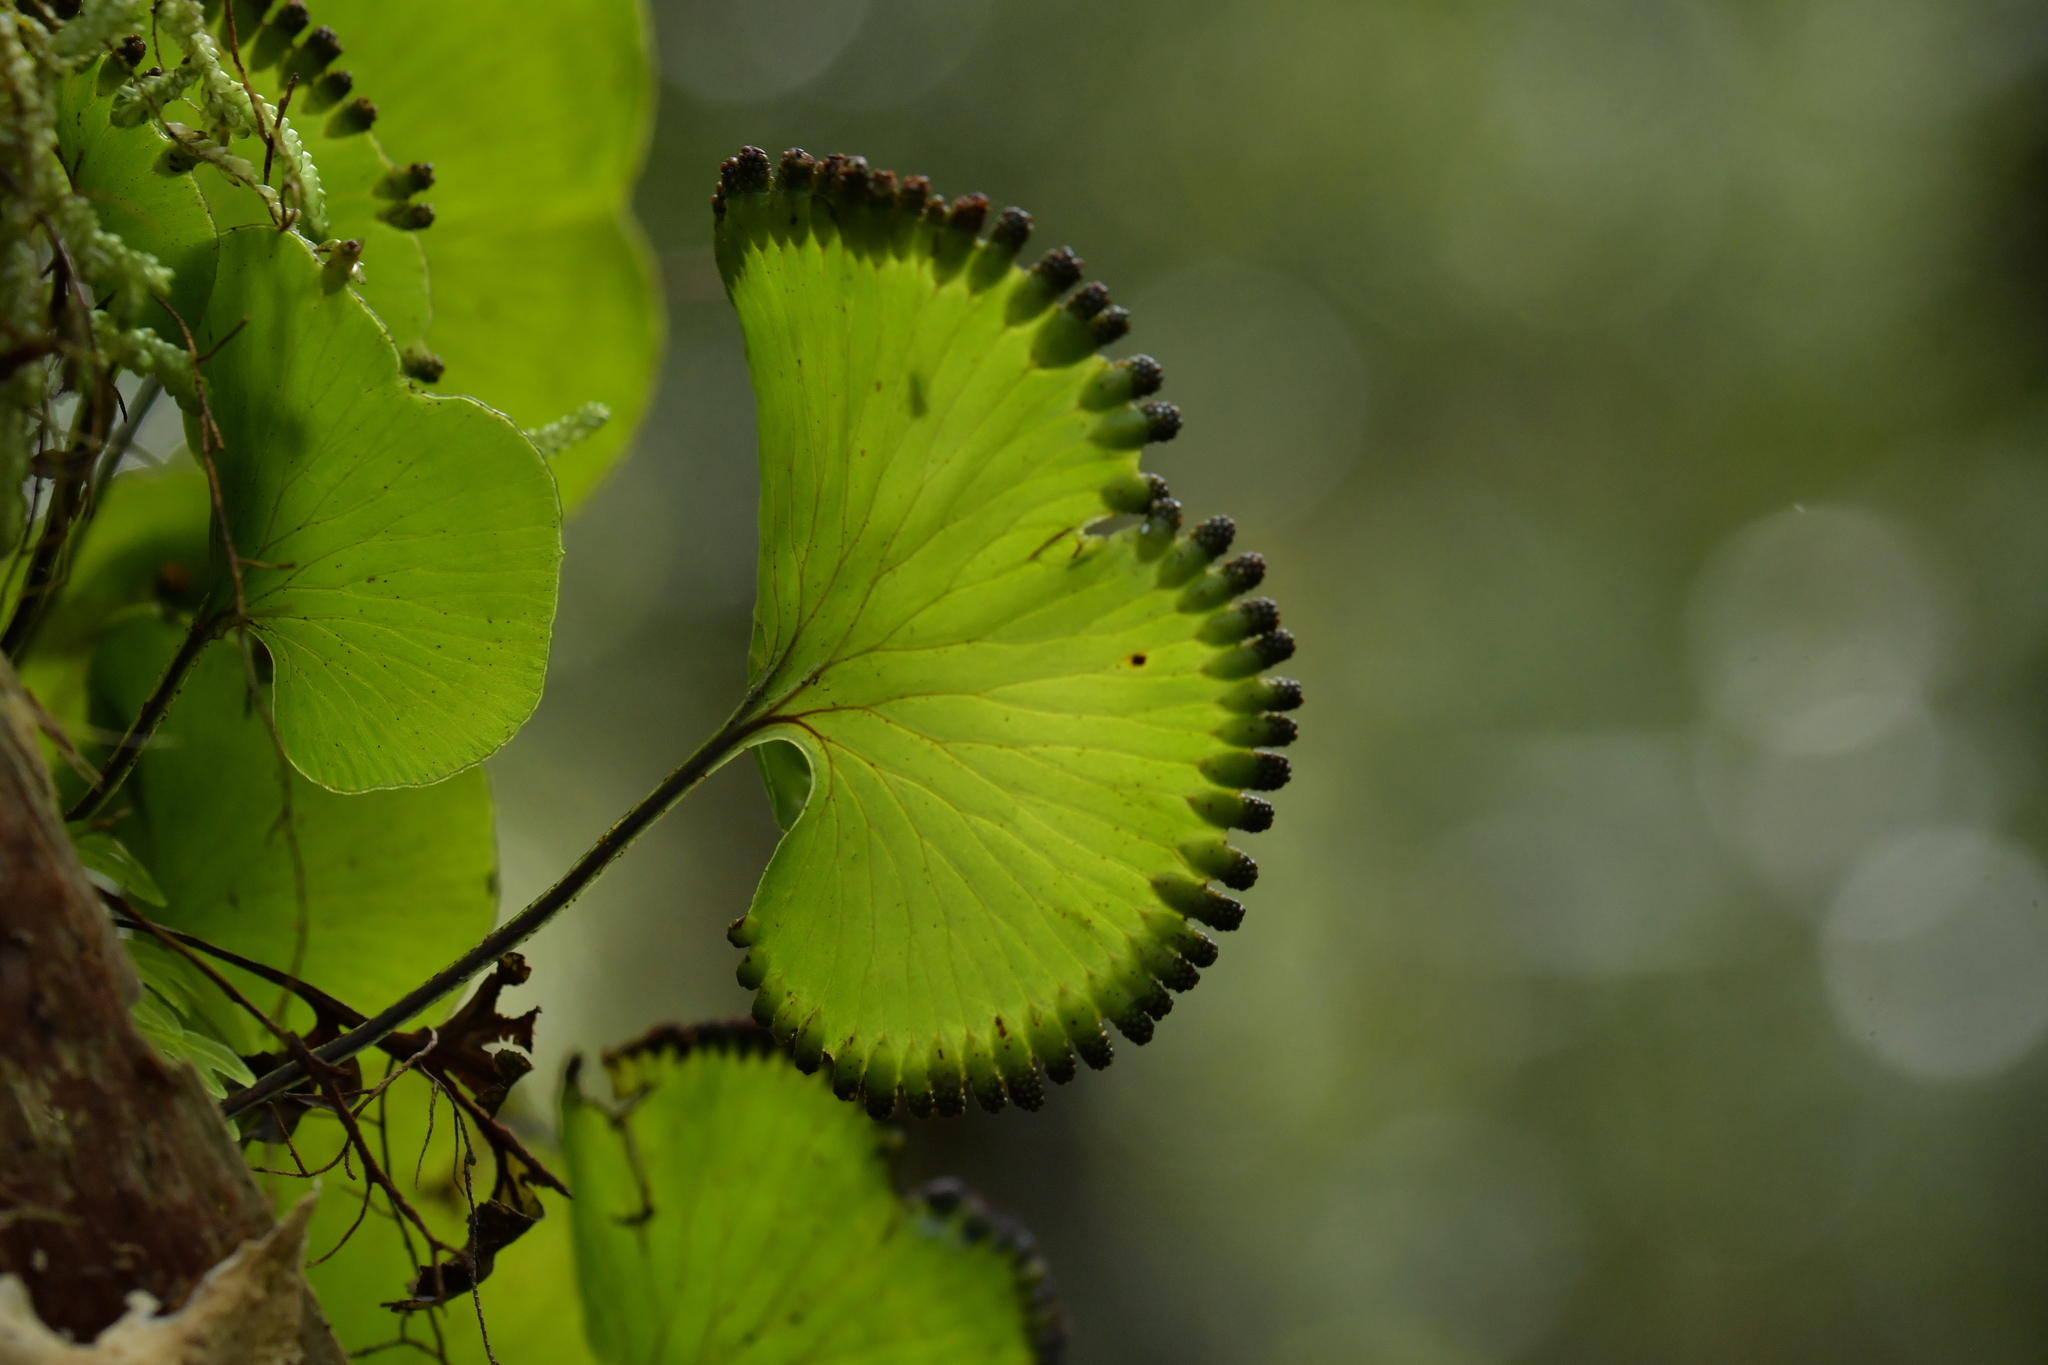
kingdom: Plantae
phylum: Tracheophyta
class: Polypodiopsida
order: Hymenophyllales
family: Hymenophyllaceae
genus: Hymenophyllum
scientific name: Hymenophyllum nephrophyllum
